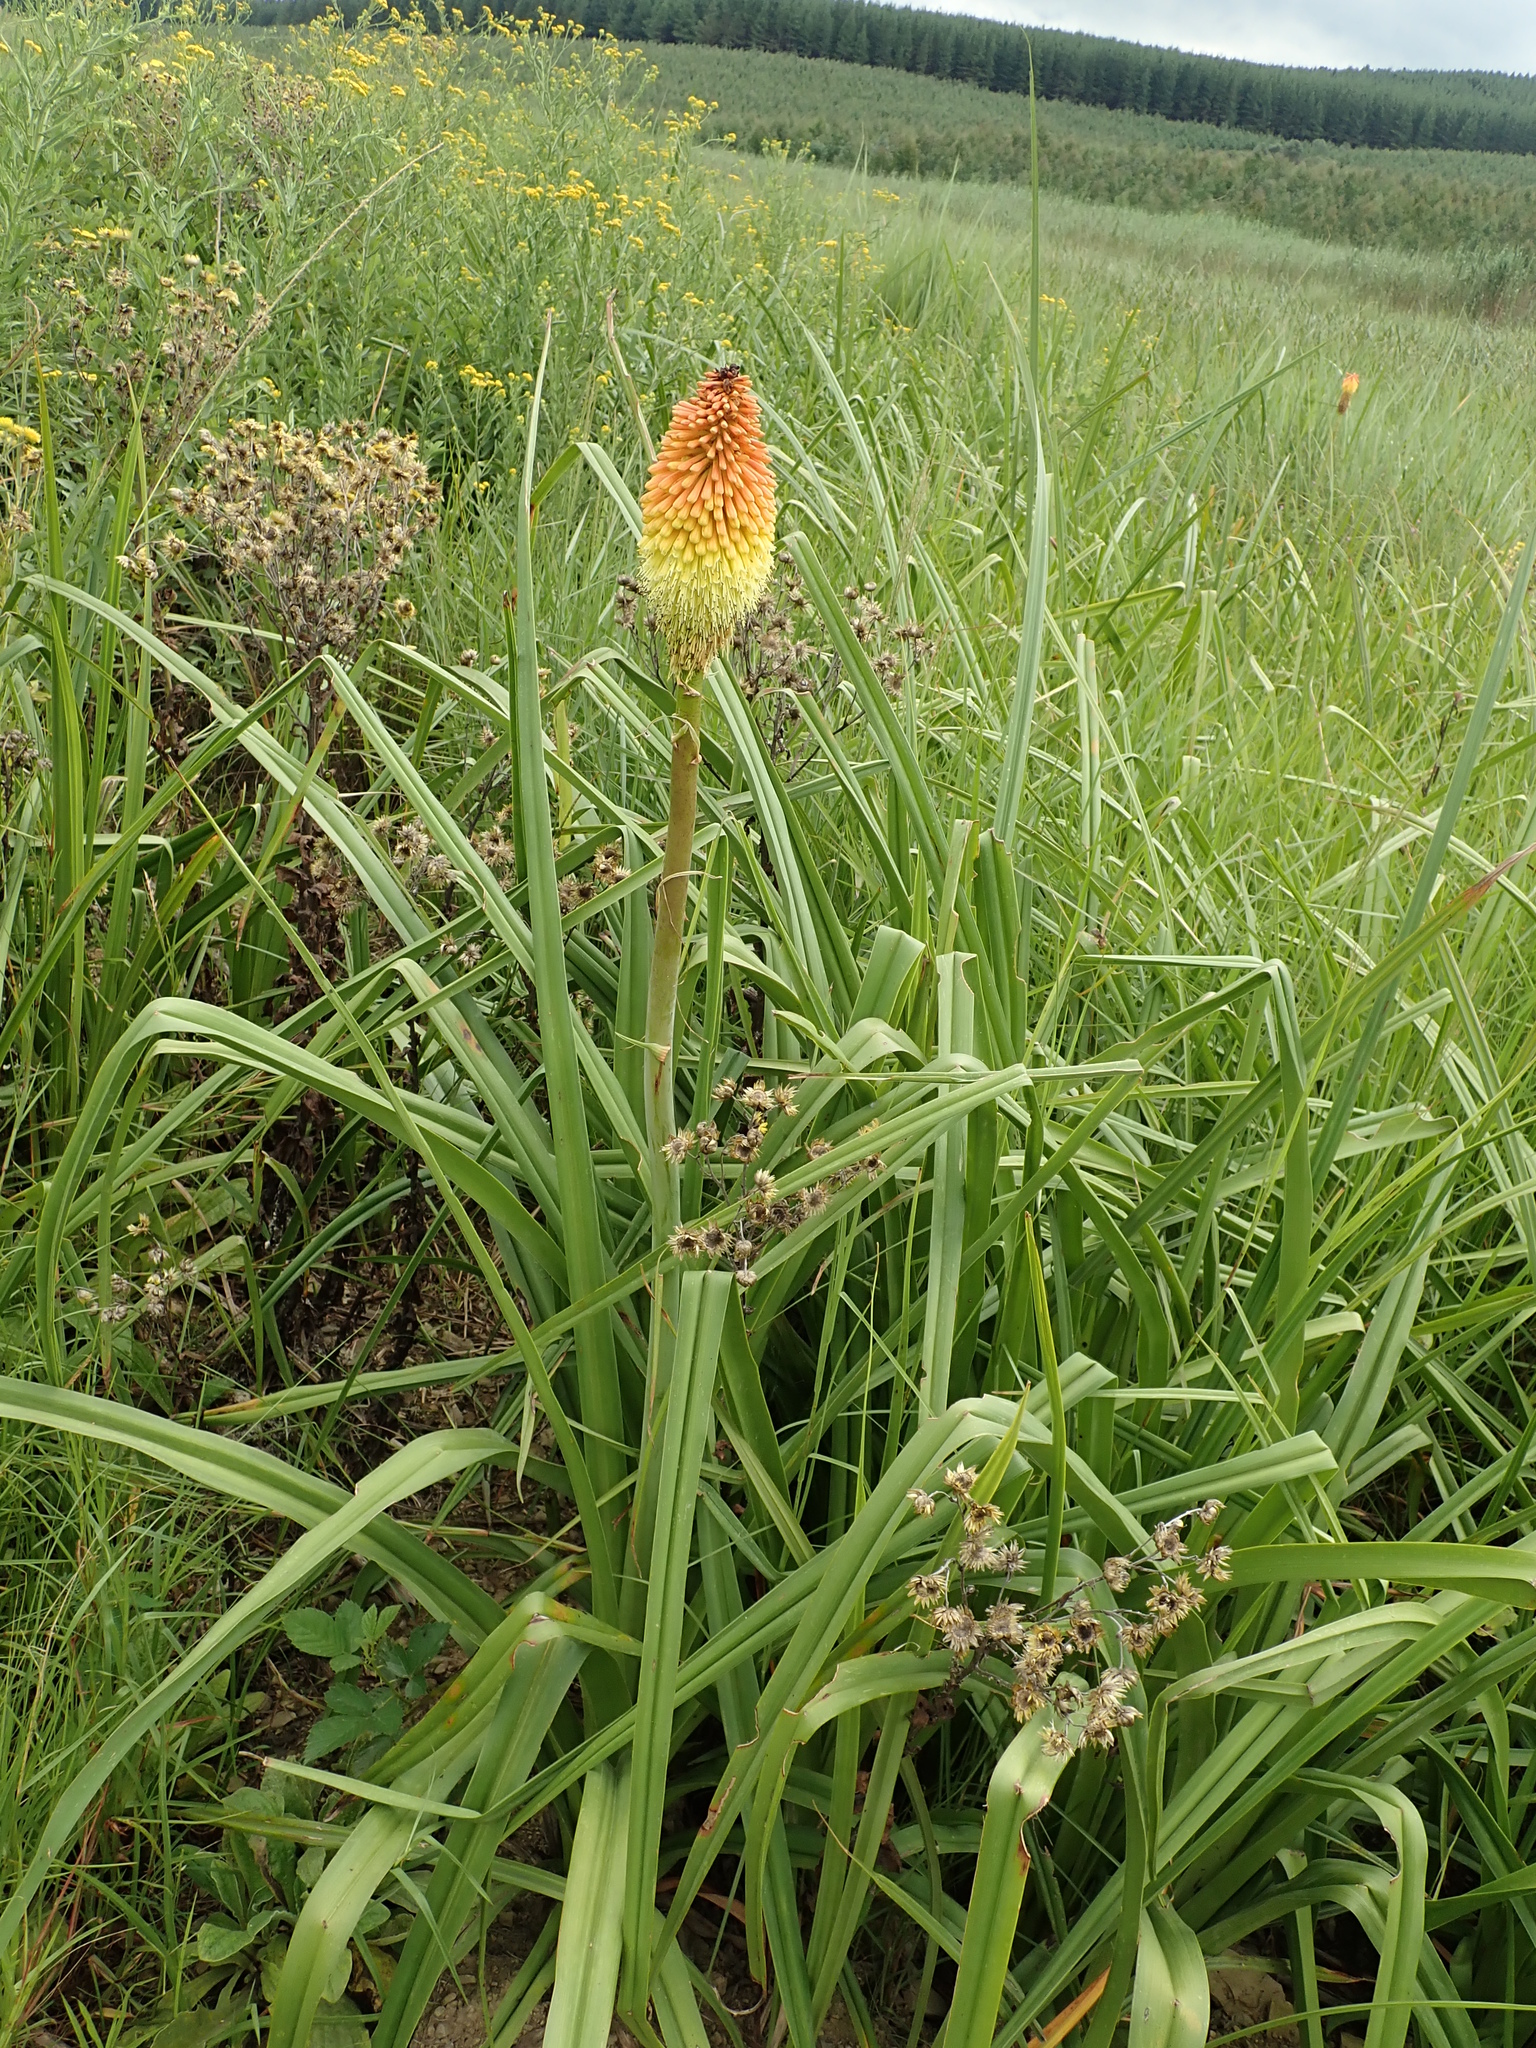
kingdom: Plantae
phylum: Tracheophyta
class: Liliopsida
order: Asparagales
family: Asphodelaceae
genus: Kniphofia
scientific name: Kniphofia tysonii
